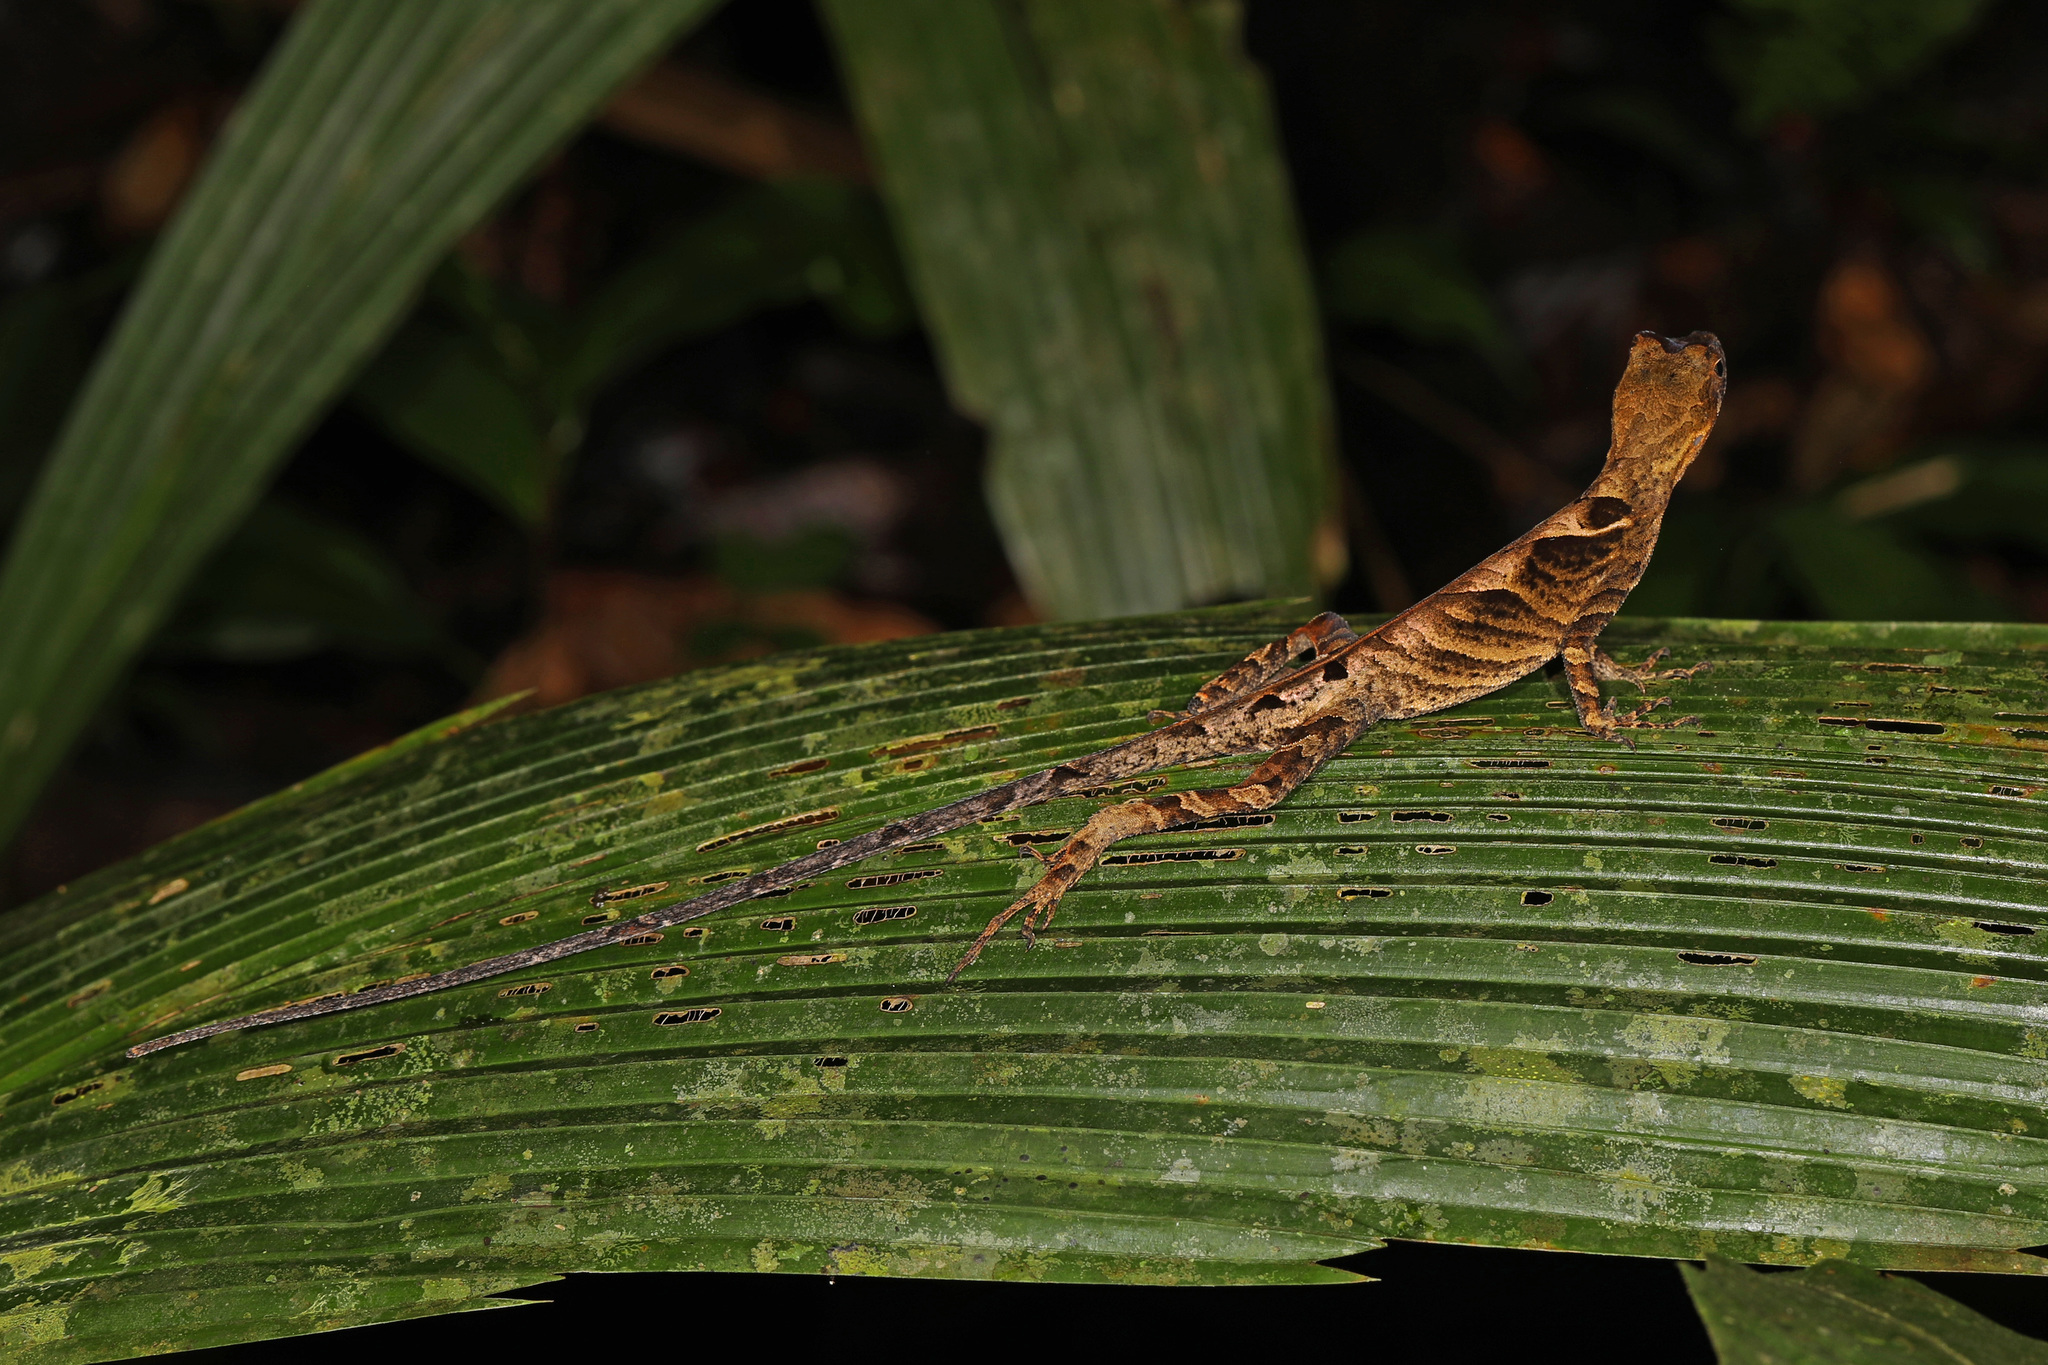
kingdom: Animalia
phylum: Chordata
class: Squamata
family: Dactyloidae
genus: Anolis
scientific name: Anolis scypheus
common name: Yellow-tongued anole
